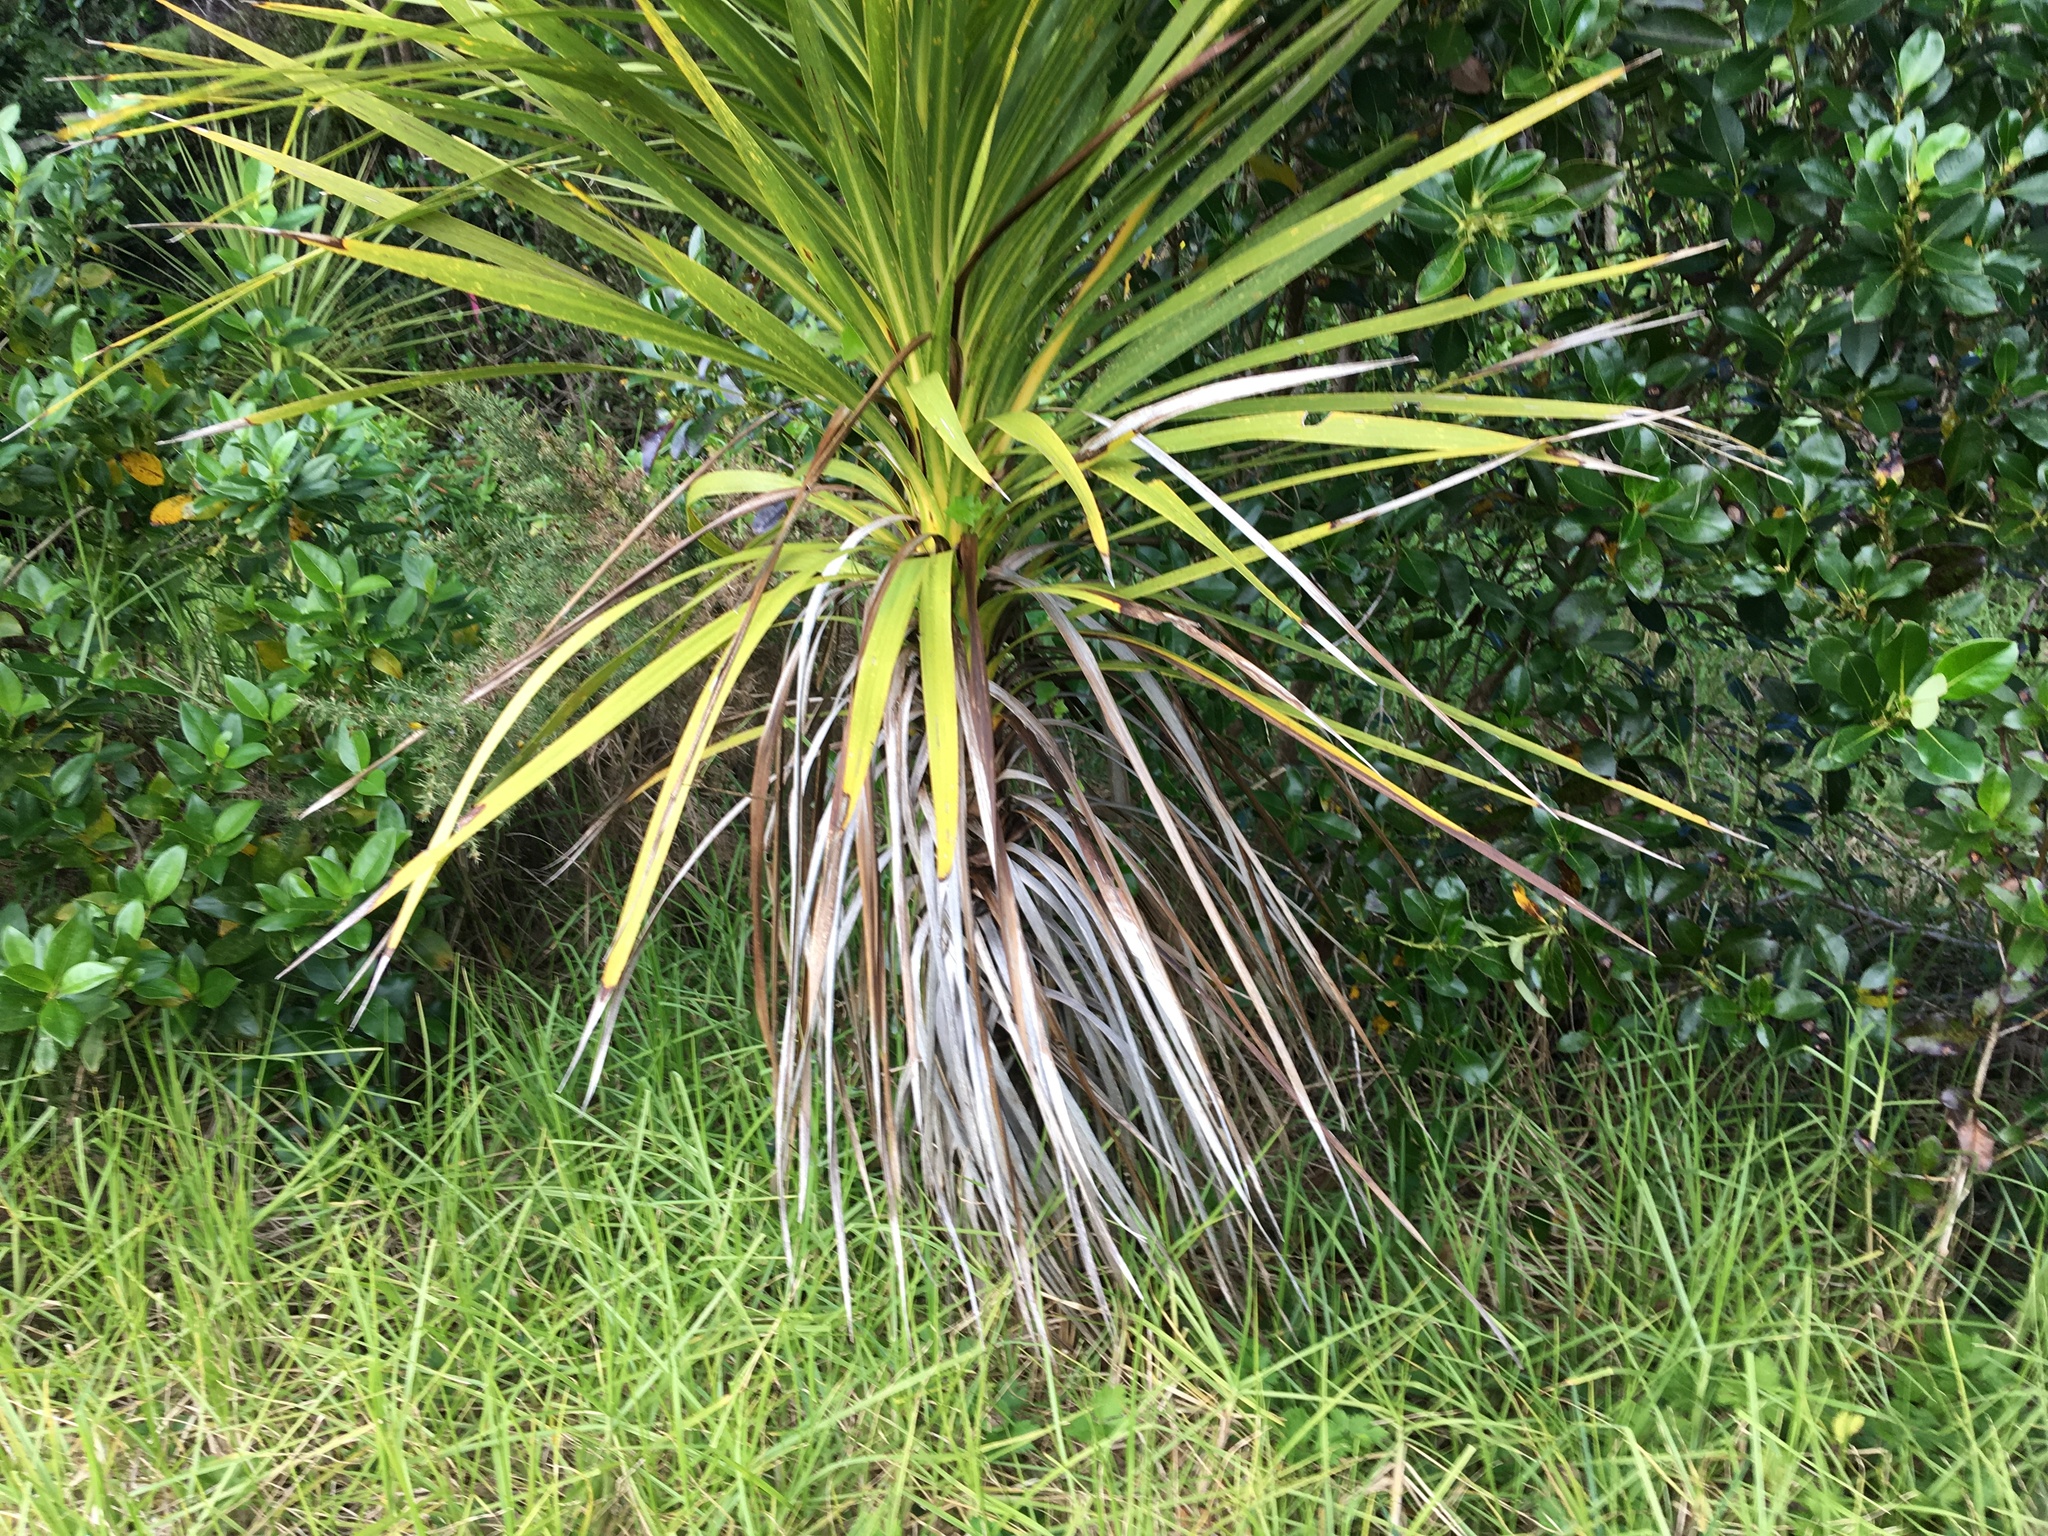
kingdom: Plantae
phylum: Tracheophyta
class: Liliopsida
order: Asparagales
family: Asparagaceae
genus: Cordyline
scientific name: Cordyline australis
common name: Cabbage-palm
